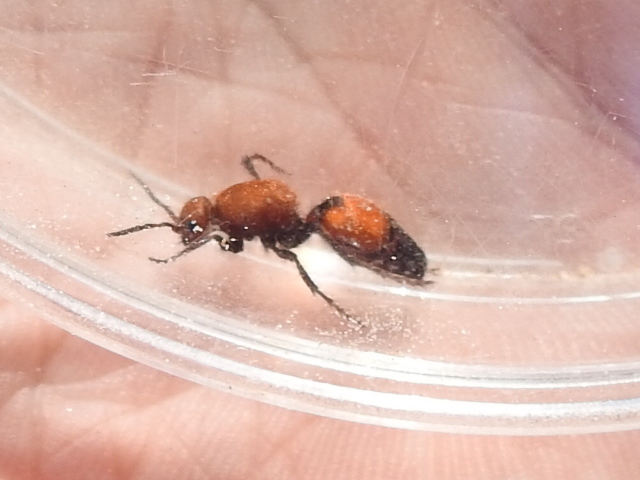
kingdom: Animalia
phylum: Arthropoda
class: Insecta
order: Hymenoptera
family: Mutillidae
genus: Dasymutilla
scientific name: Dasymutilla
